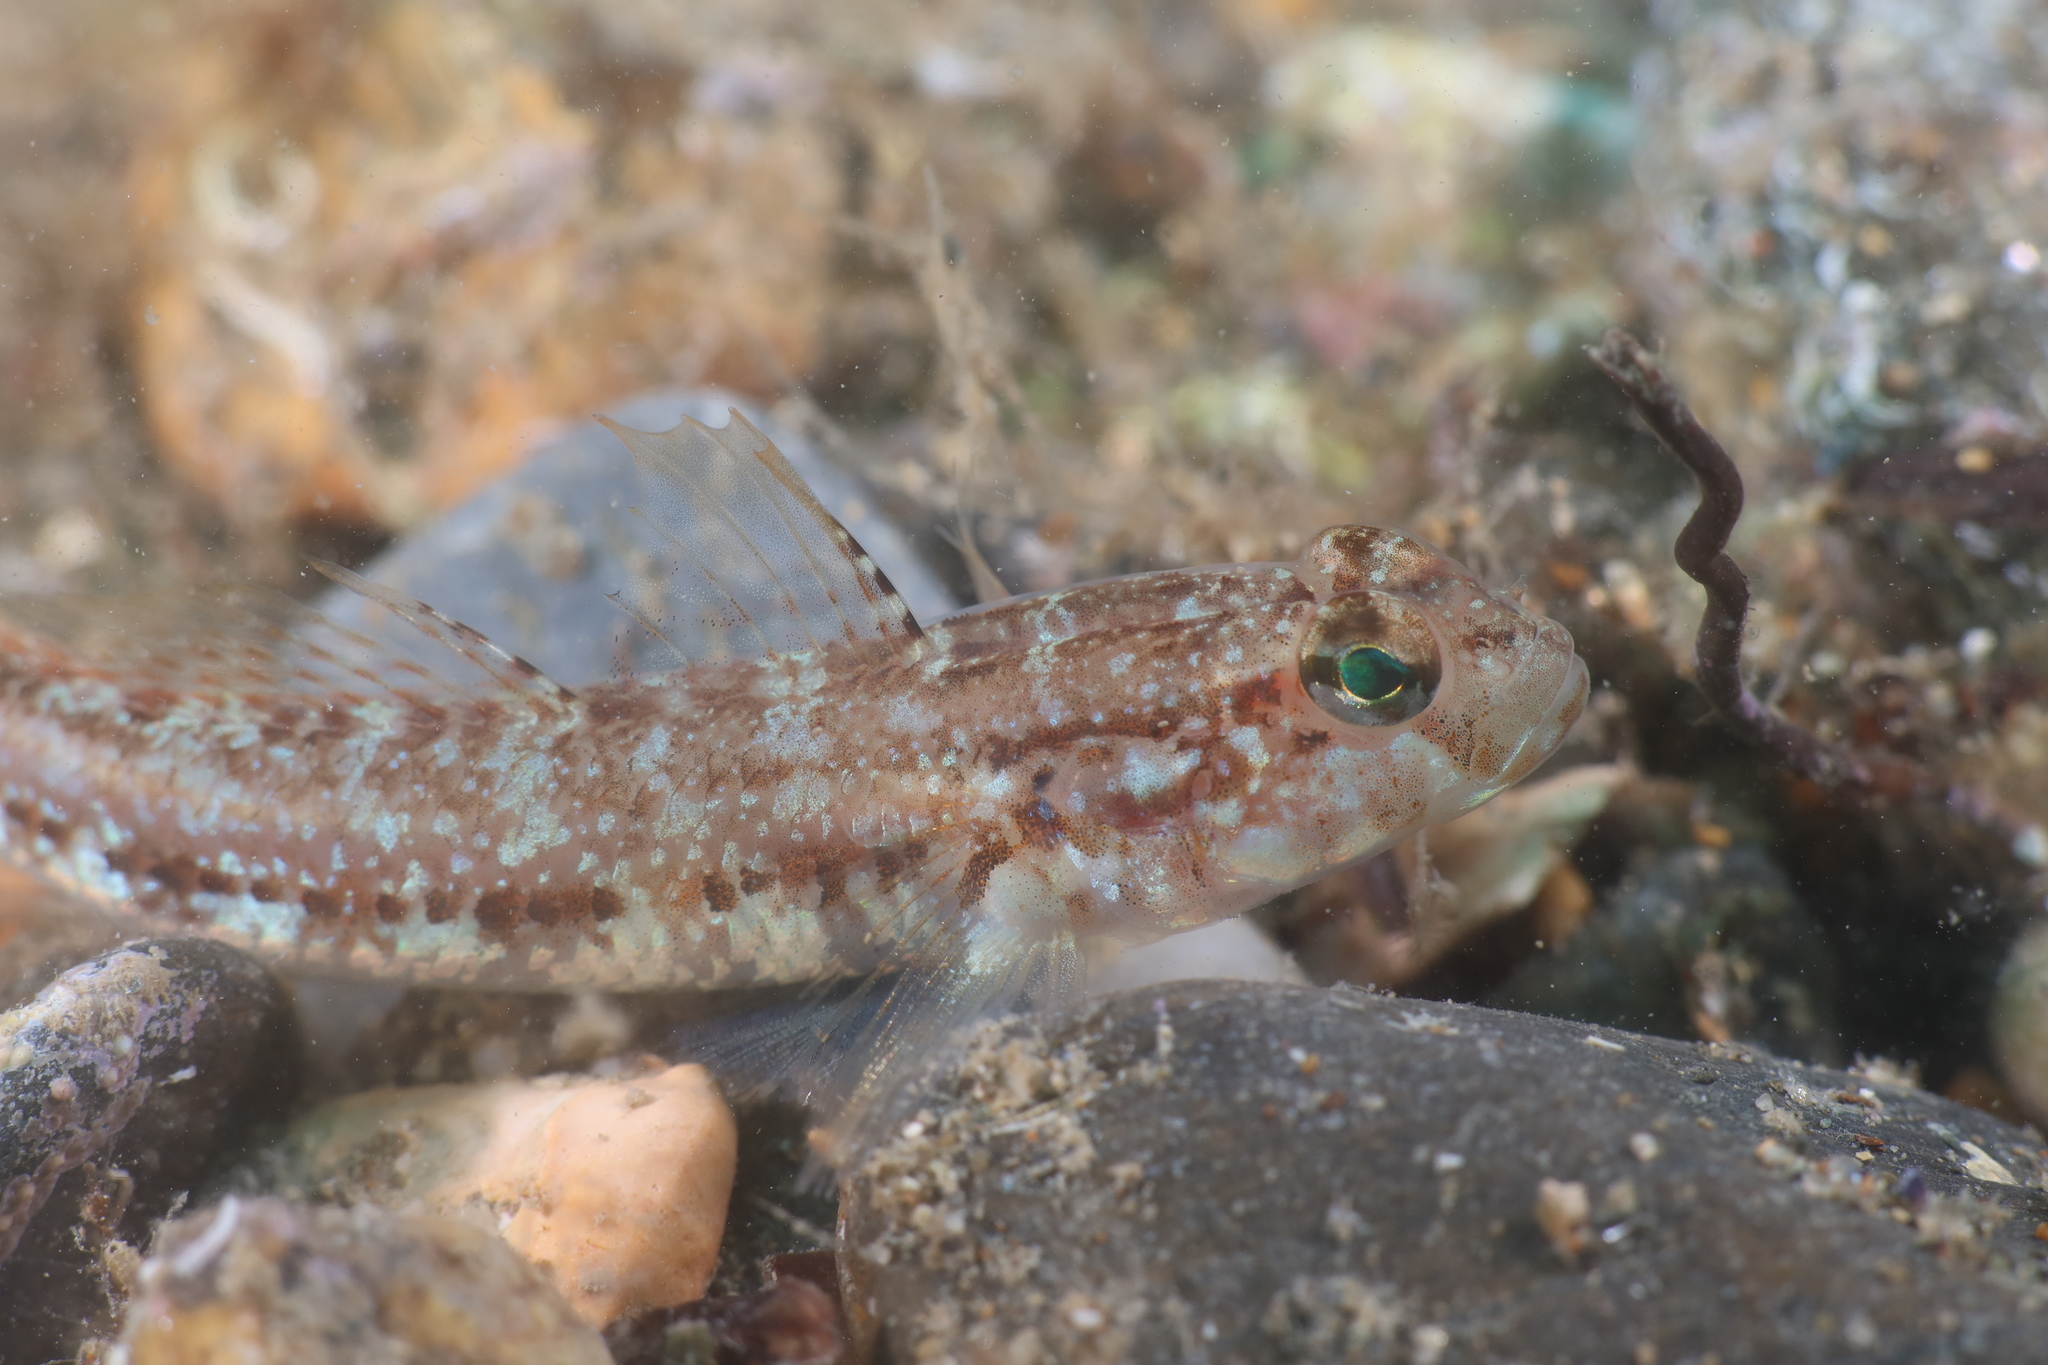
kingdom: Animalia
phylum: Chordata
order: Perciformes
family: Gobiidae
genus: Gobius
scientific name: Gobius roulei
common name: Roule's goby
